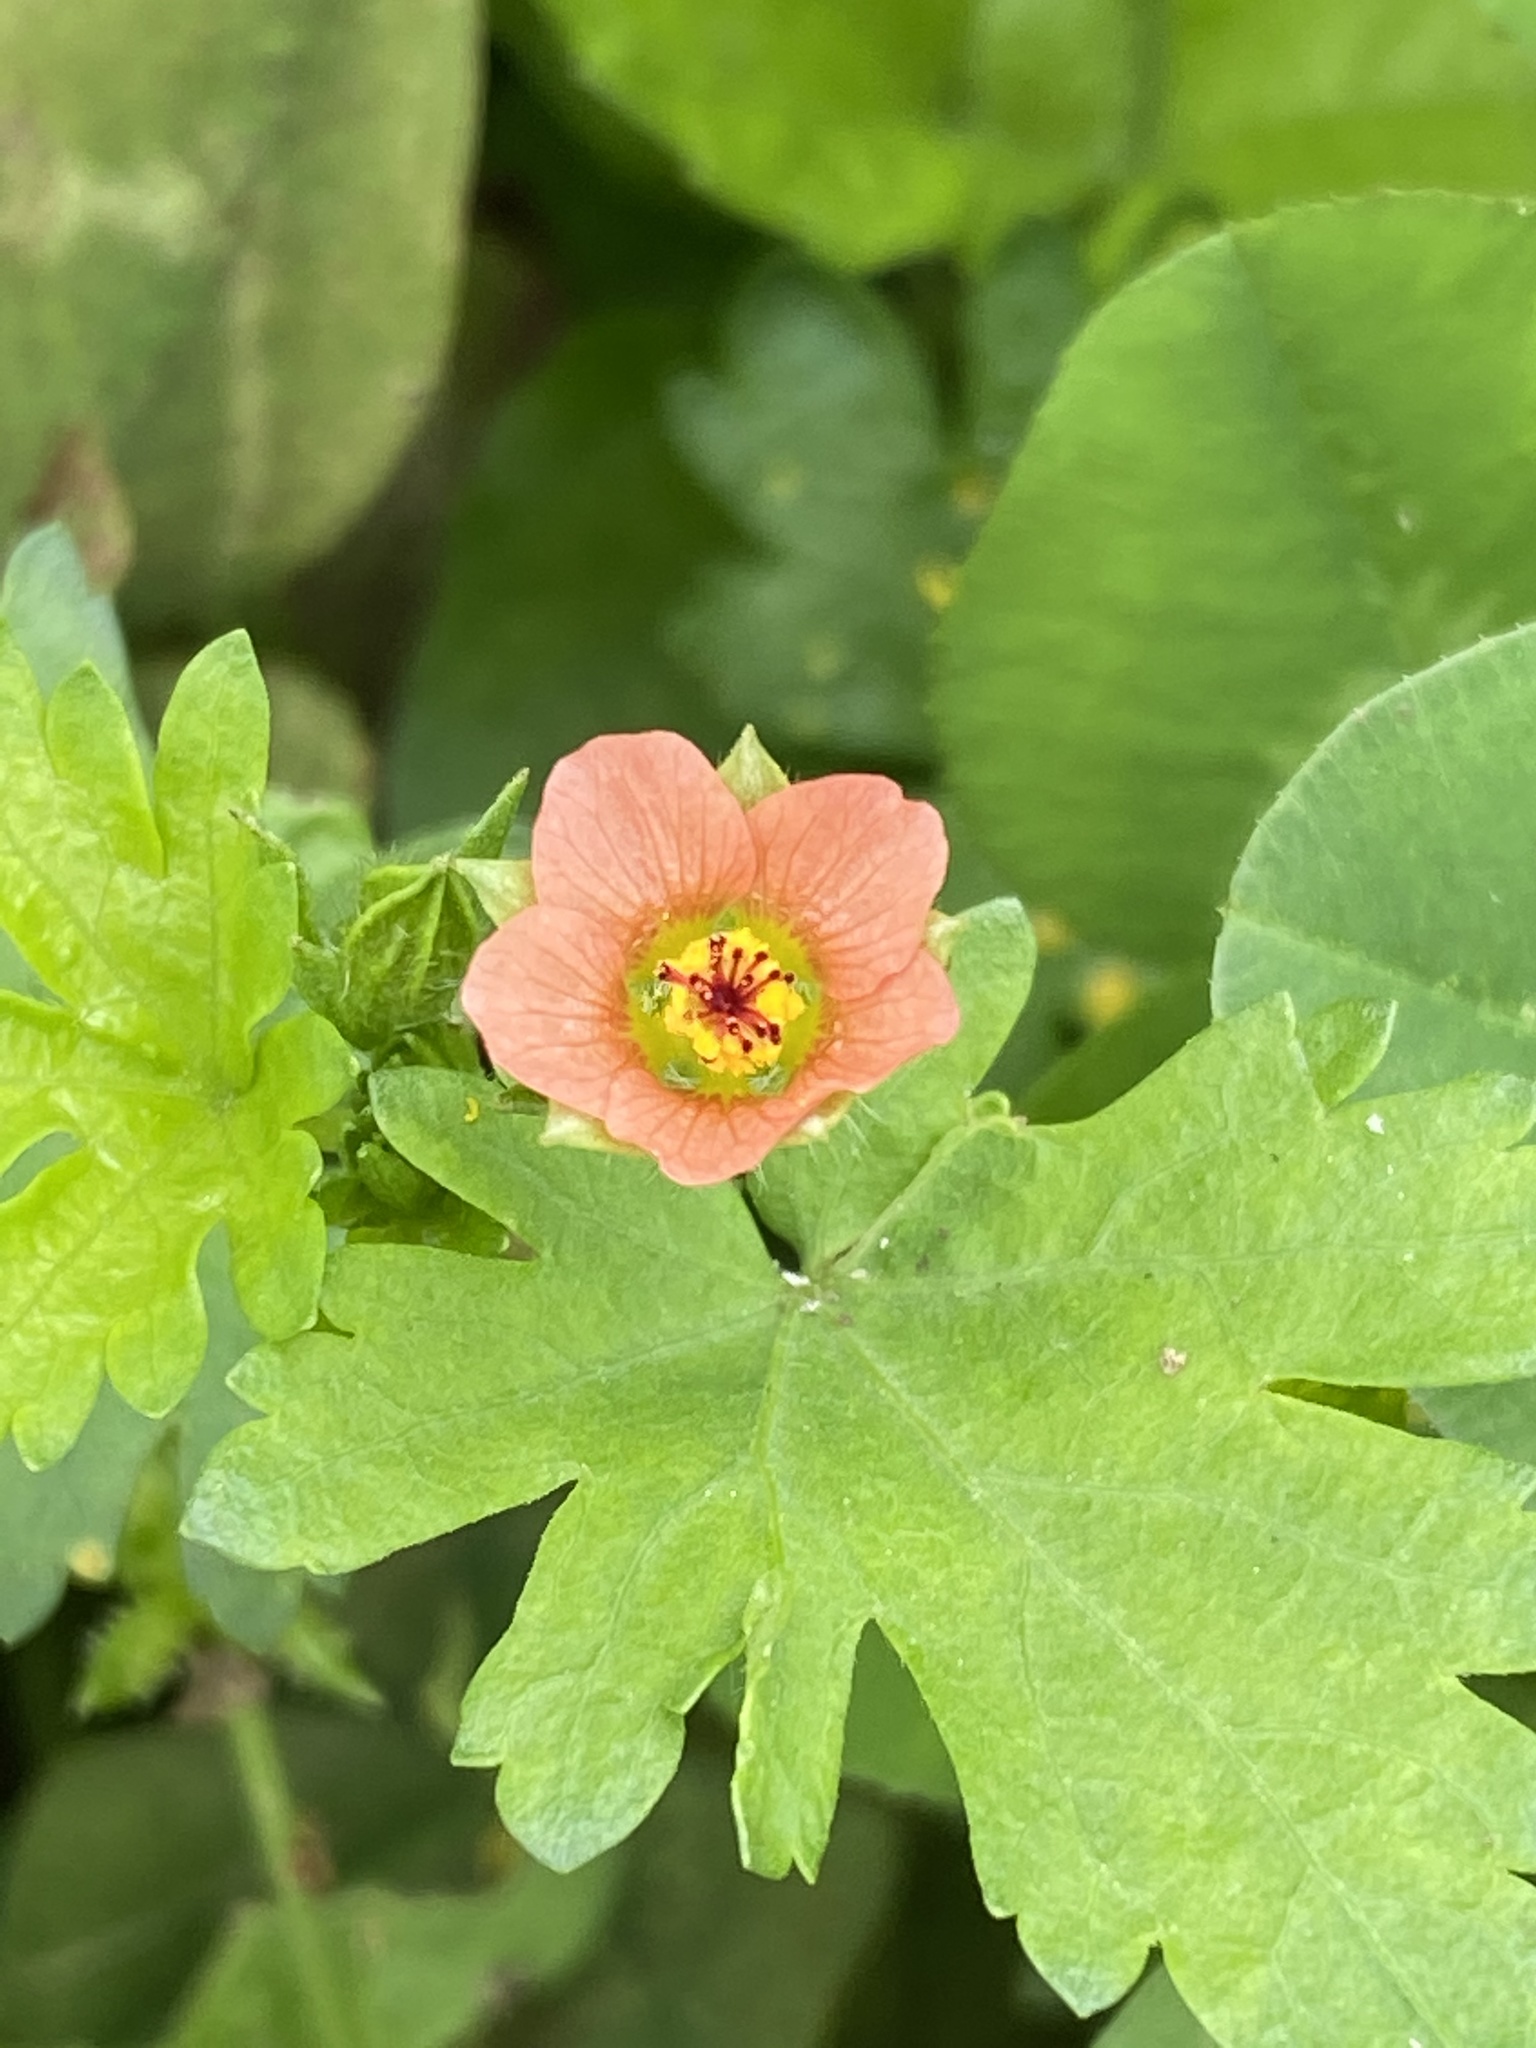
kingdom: Plantae
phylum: Tracheophyta
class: Magnoliopsida
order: Malvales
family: Malvaceae
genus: Modiola
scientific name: Modiola caroliniana
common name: Carolina bristlemallow
